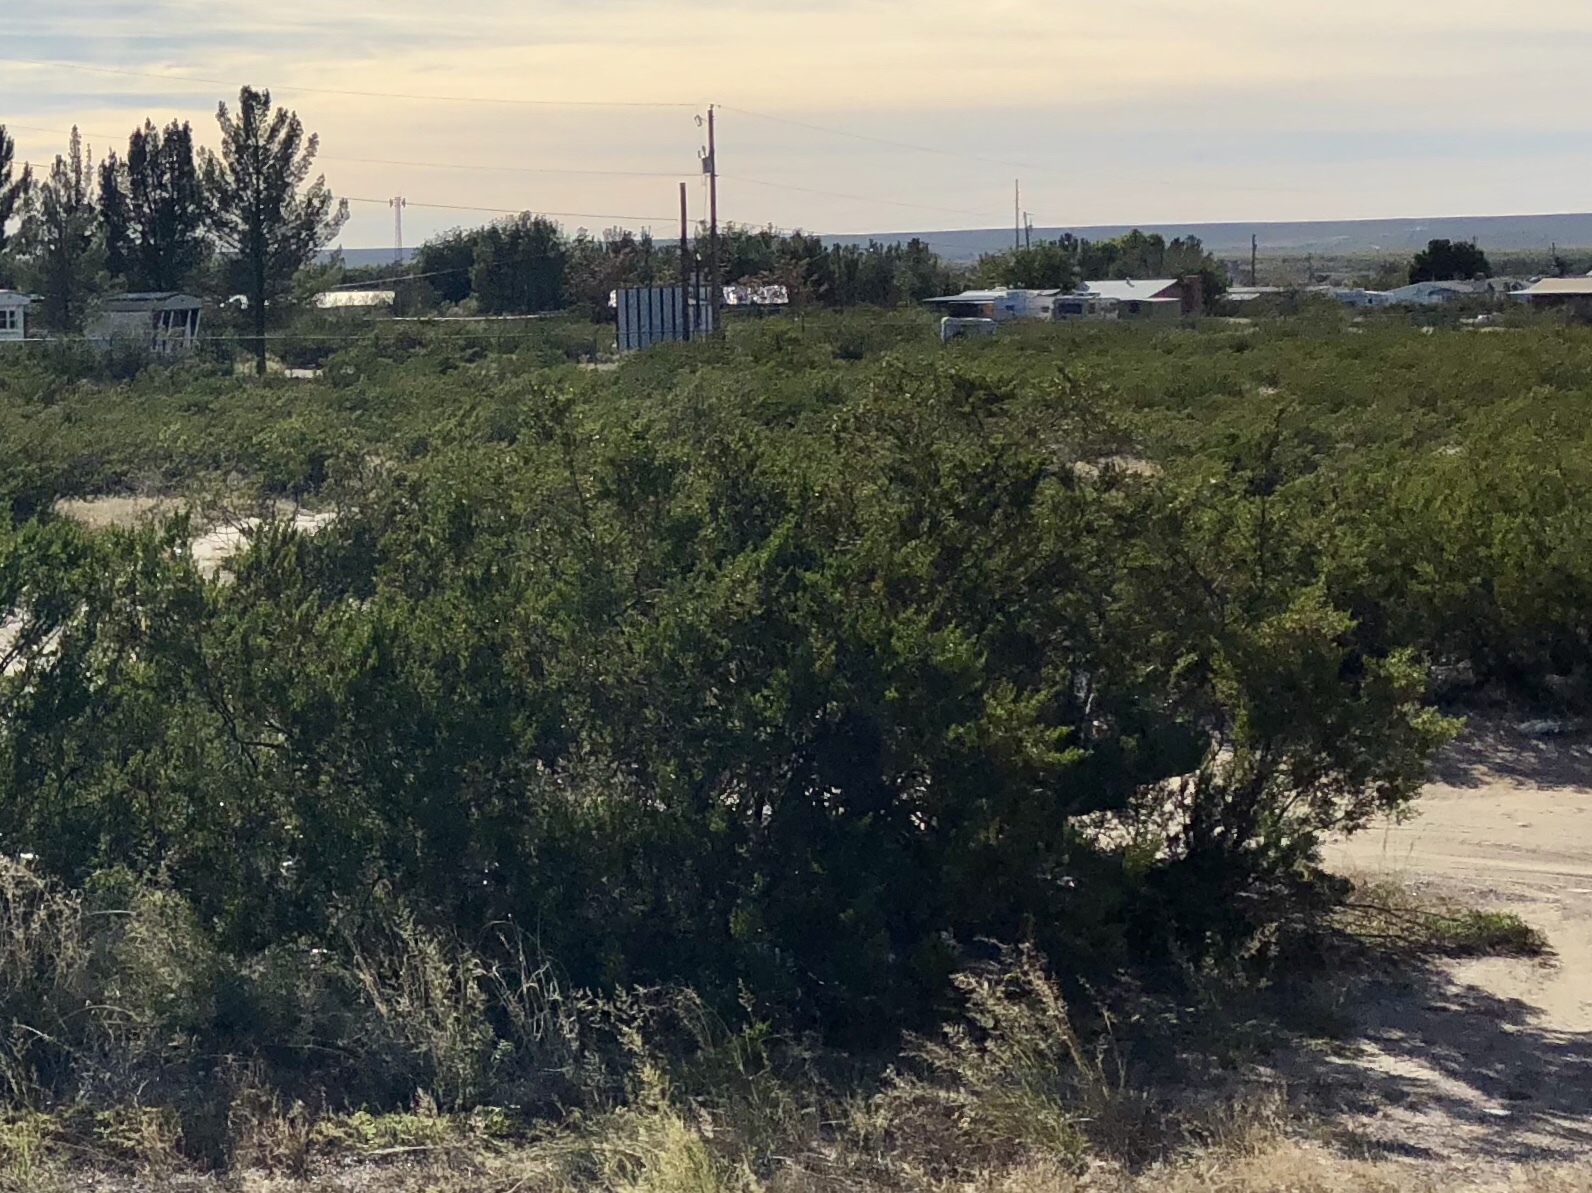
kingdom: Plantae
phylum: Tracheophyta
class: Magnoliopsida
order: Zygophyllales
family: Zygophyllaceae
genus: Larrea
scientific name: Larrea tridentata
